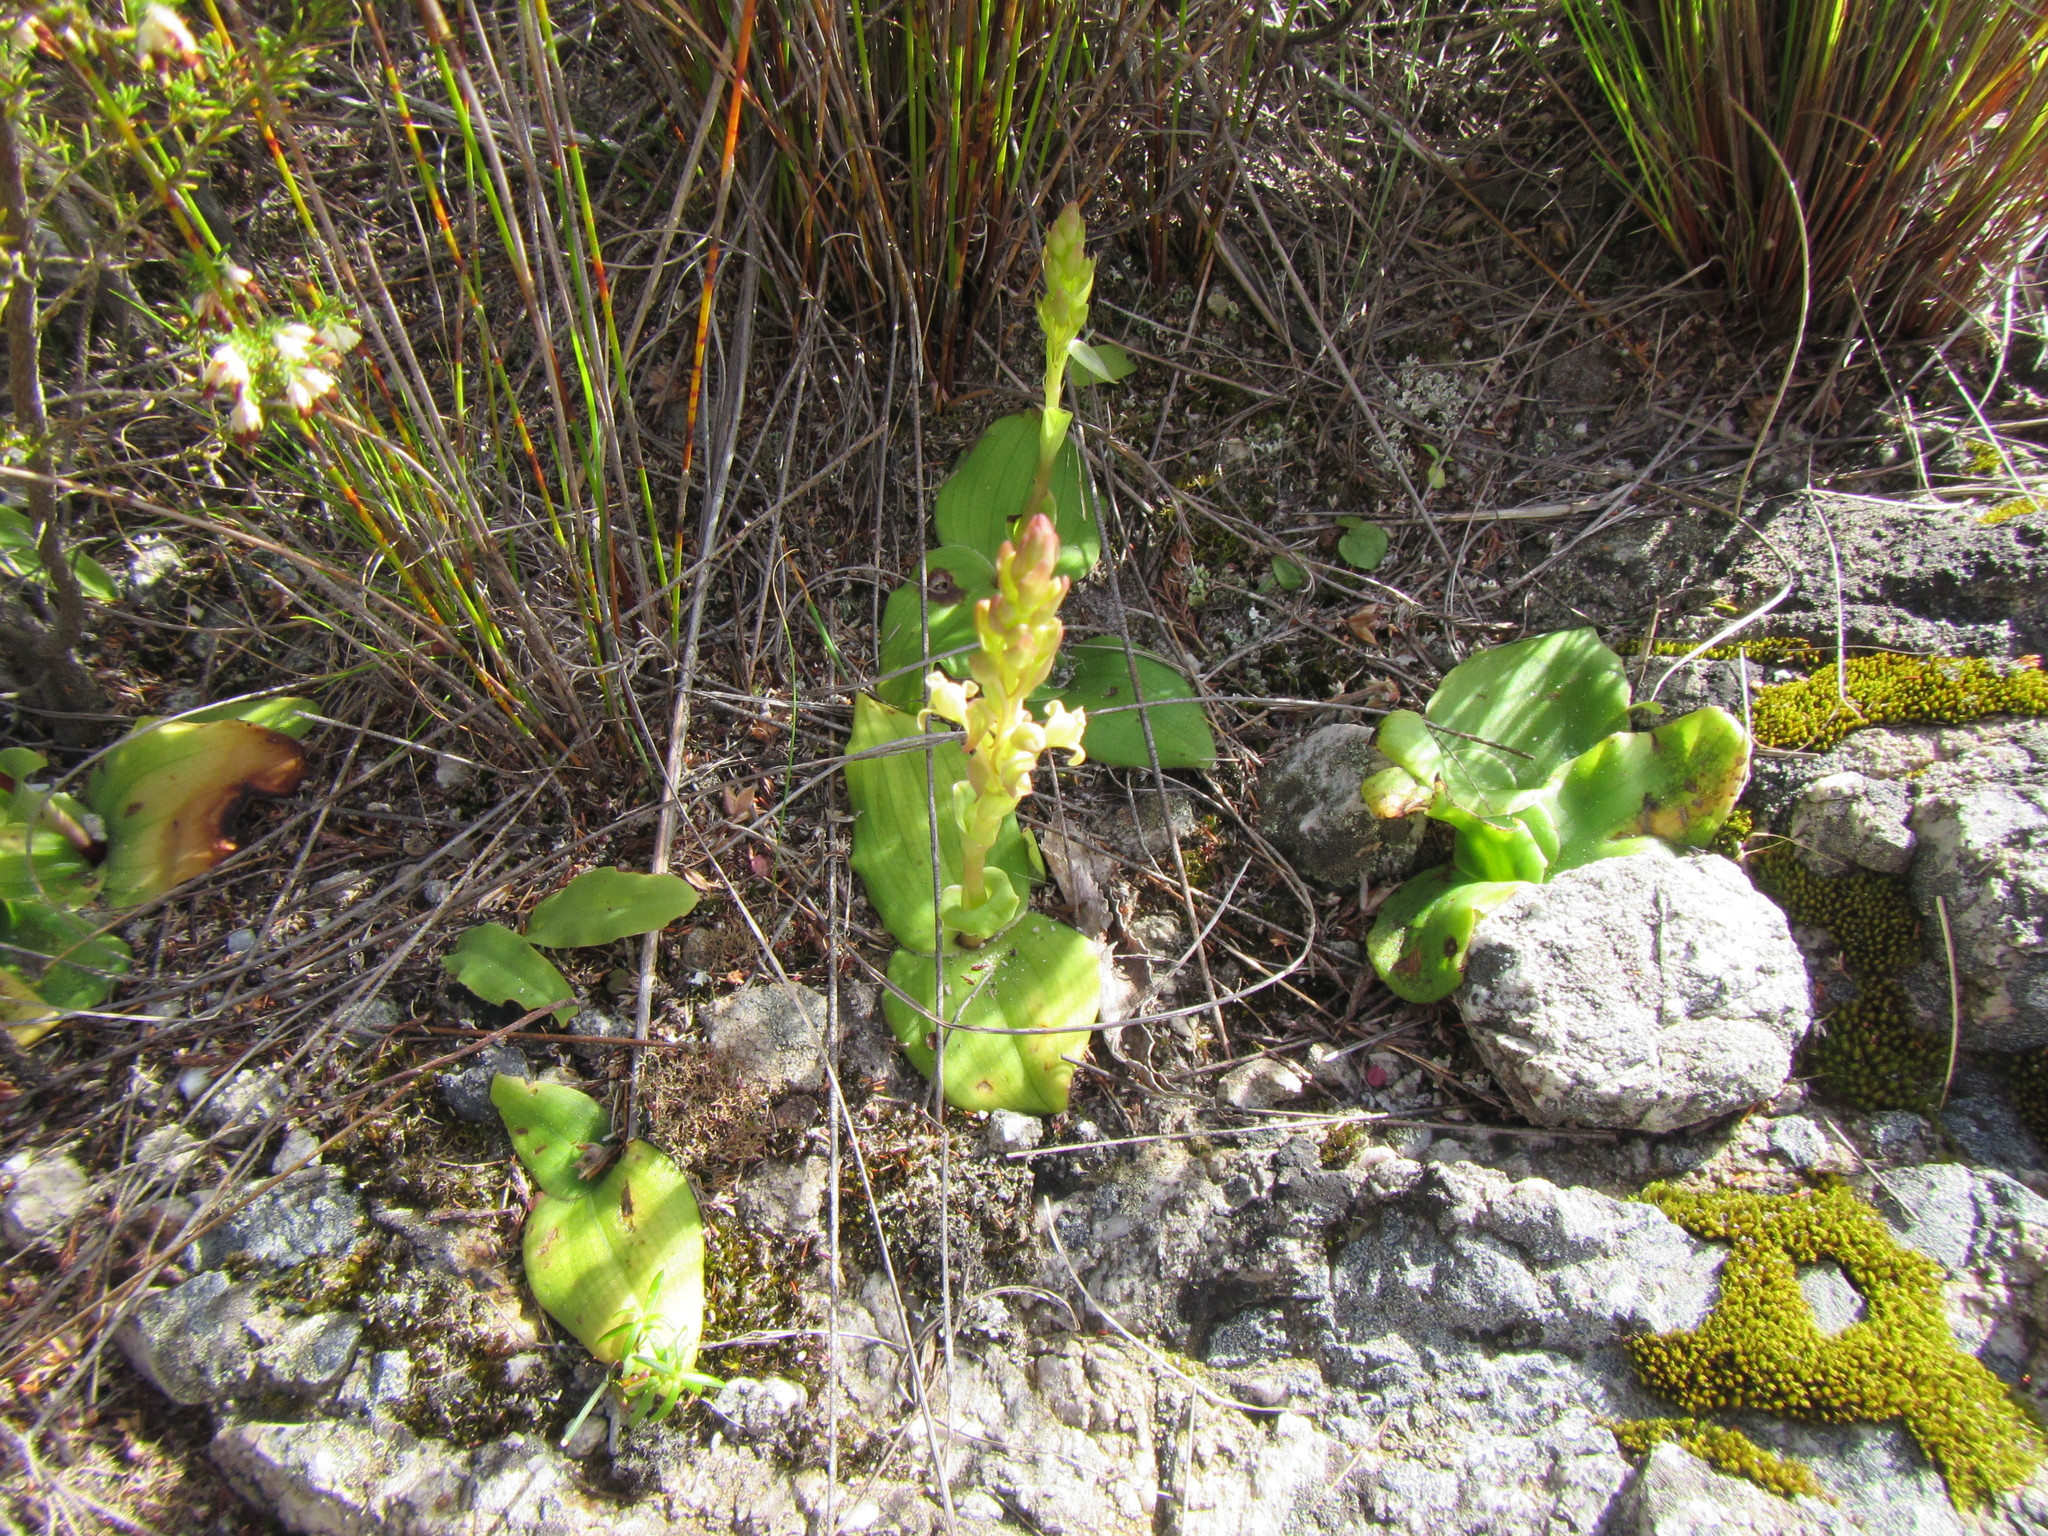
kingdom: Plantae
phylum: Tracheophyta
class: Liliopsida
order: Asparagales
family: Orchidaceae
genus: Satyrium
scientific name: Satyrium humile
